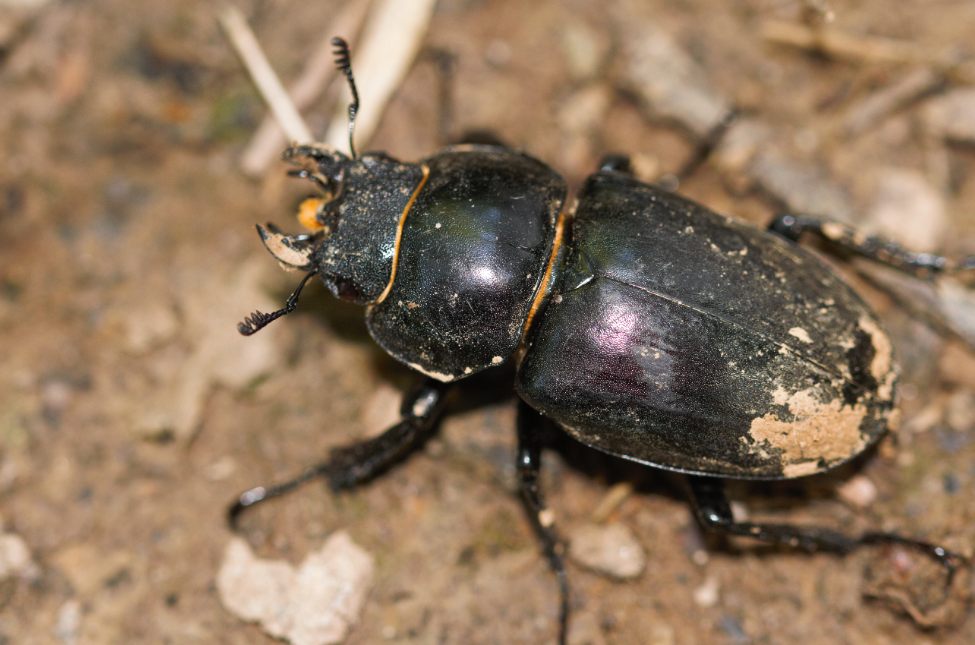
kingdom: Animalia
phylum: Arthropoda
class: Insecta
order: Coleoptera
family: Lucanidae
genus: Lucanus
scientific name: Lucanus cervus
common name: Stag beetle
